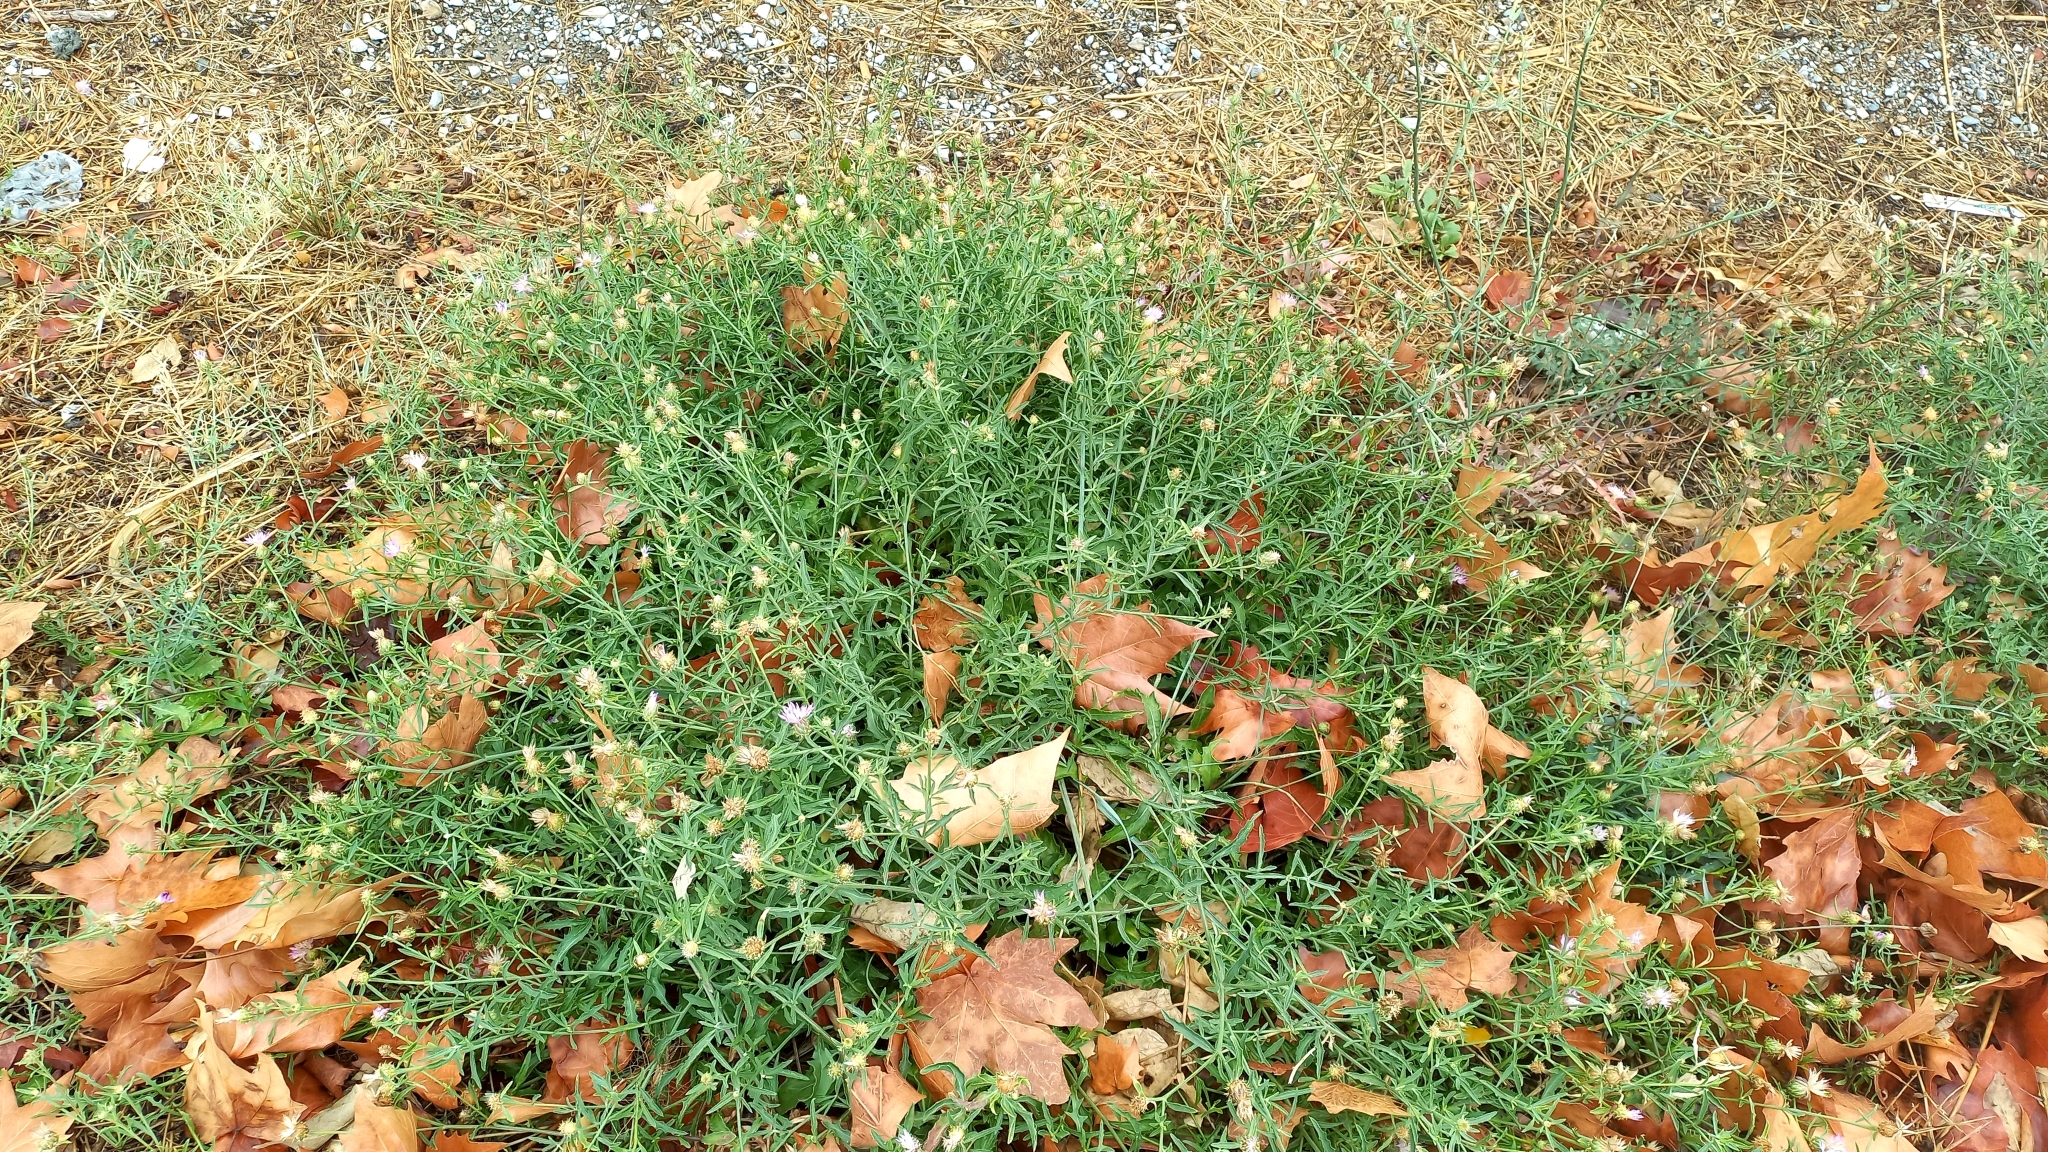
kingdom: Plantae
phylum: Tracheophyta
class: Magnoliopsida
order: Asterales
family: Asteraceae
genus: Centaurea
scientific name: Centaurea aspera
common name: Rough star-thistle
